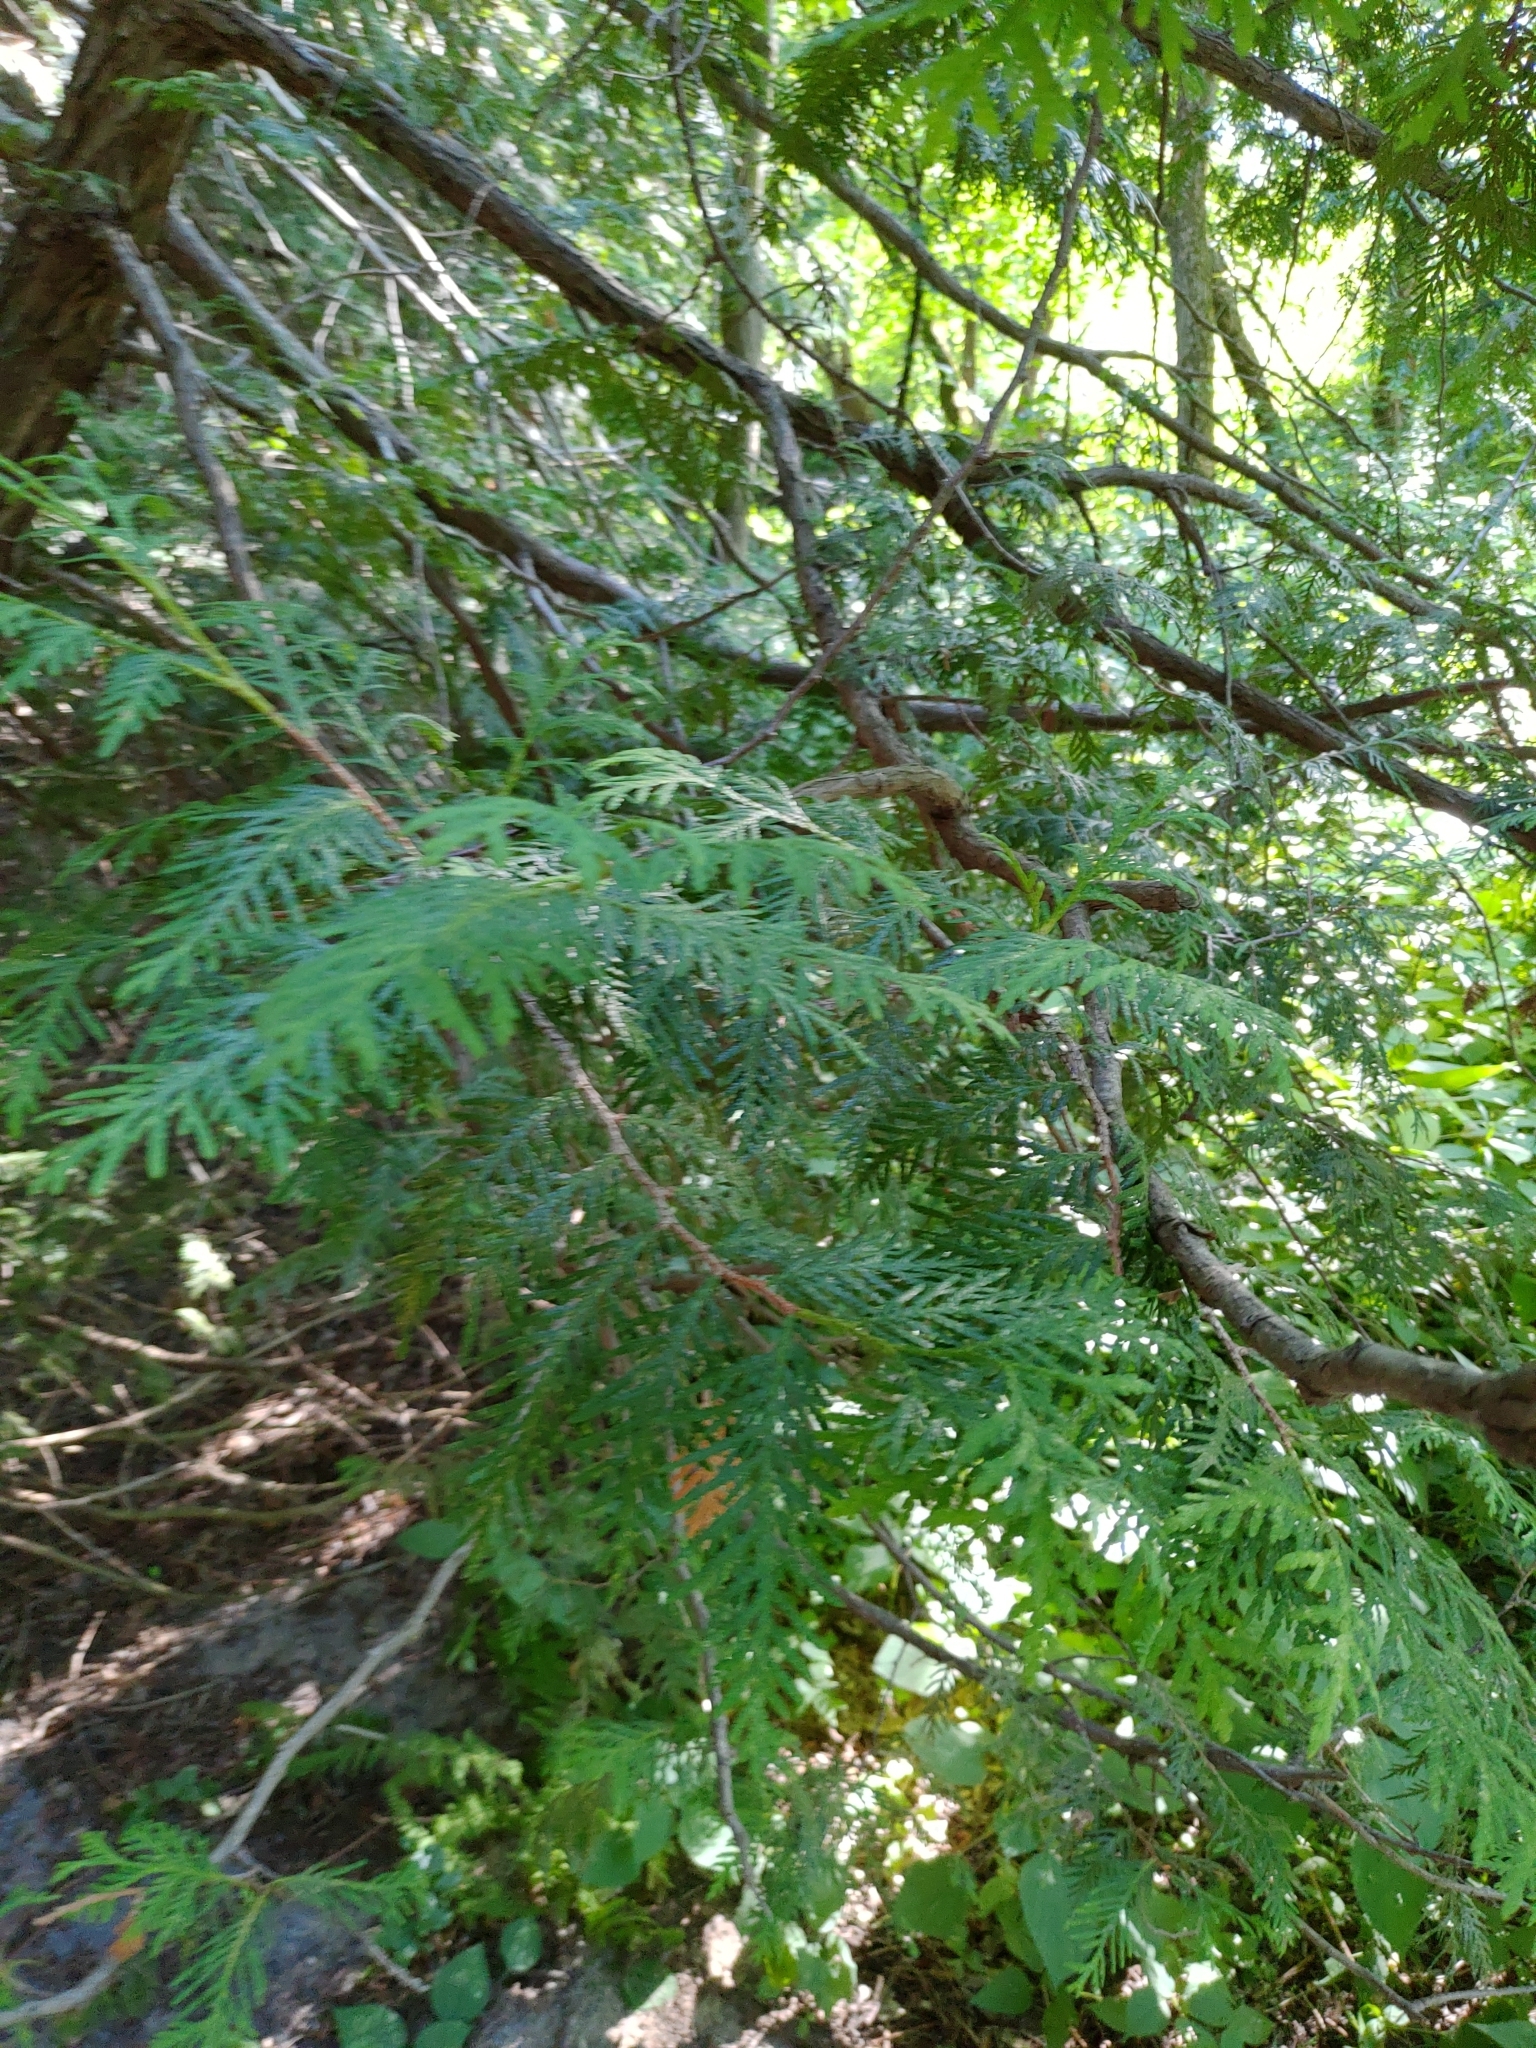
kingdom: Plantae
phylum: Tracheophyta
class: Pinopsida
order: Pinales
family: Cupressaceae
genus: Thuja
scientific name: Thuja occidentalis
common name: Northern white-cedar
